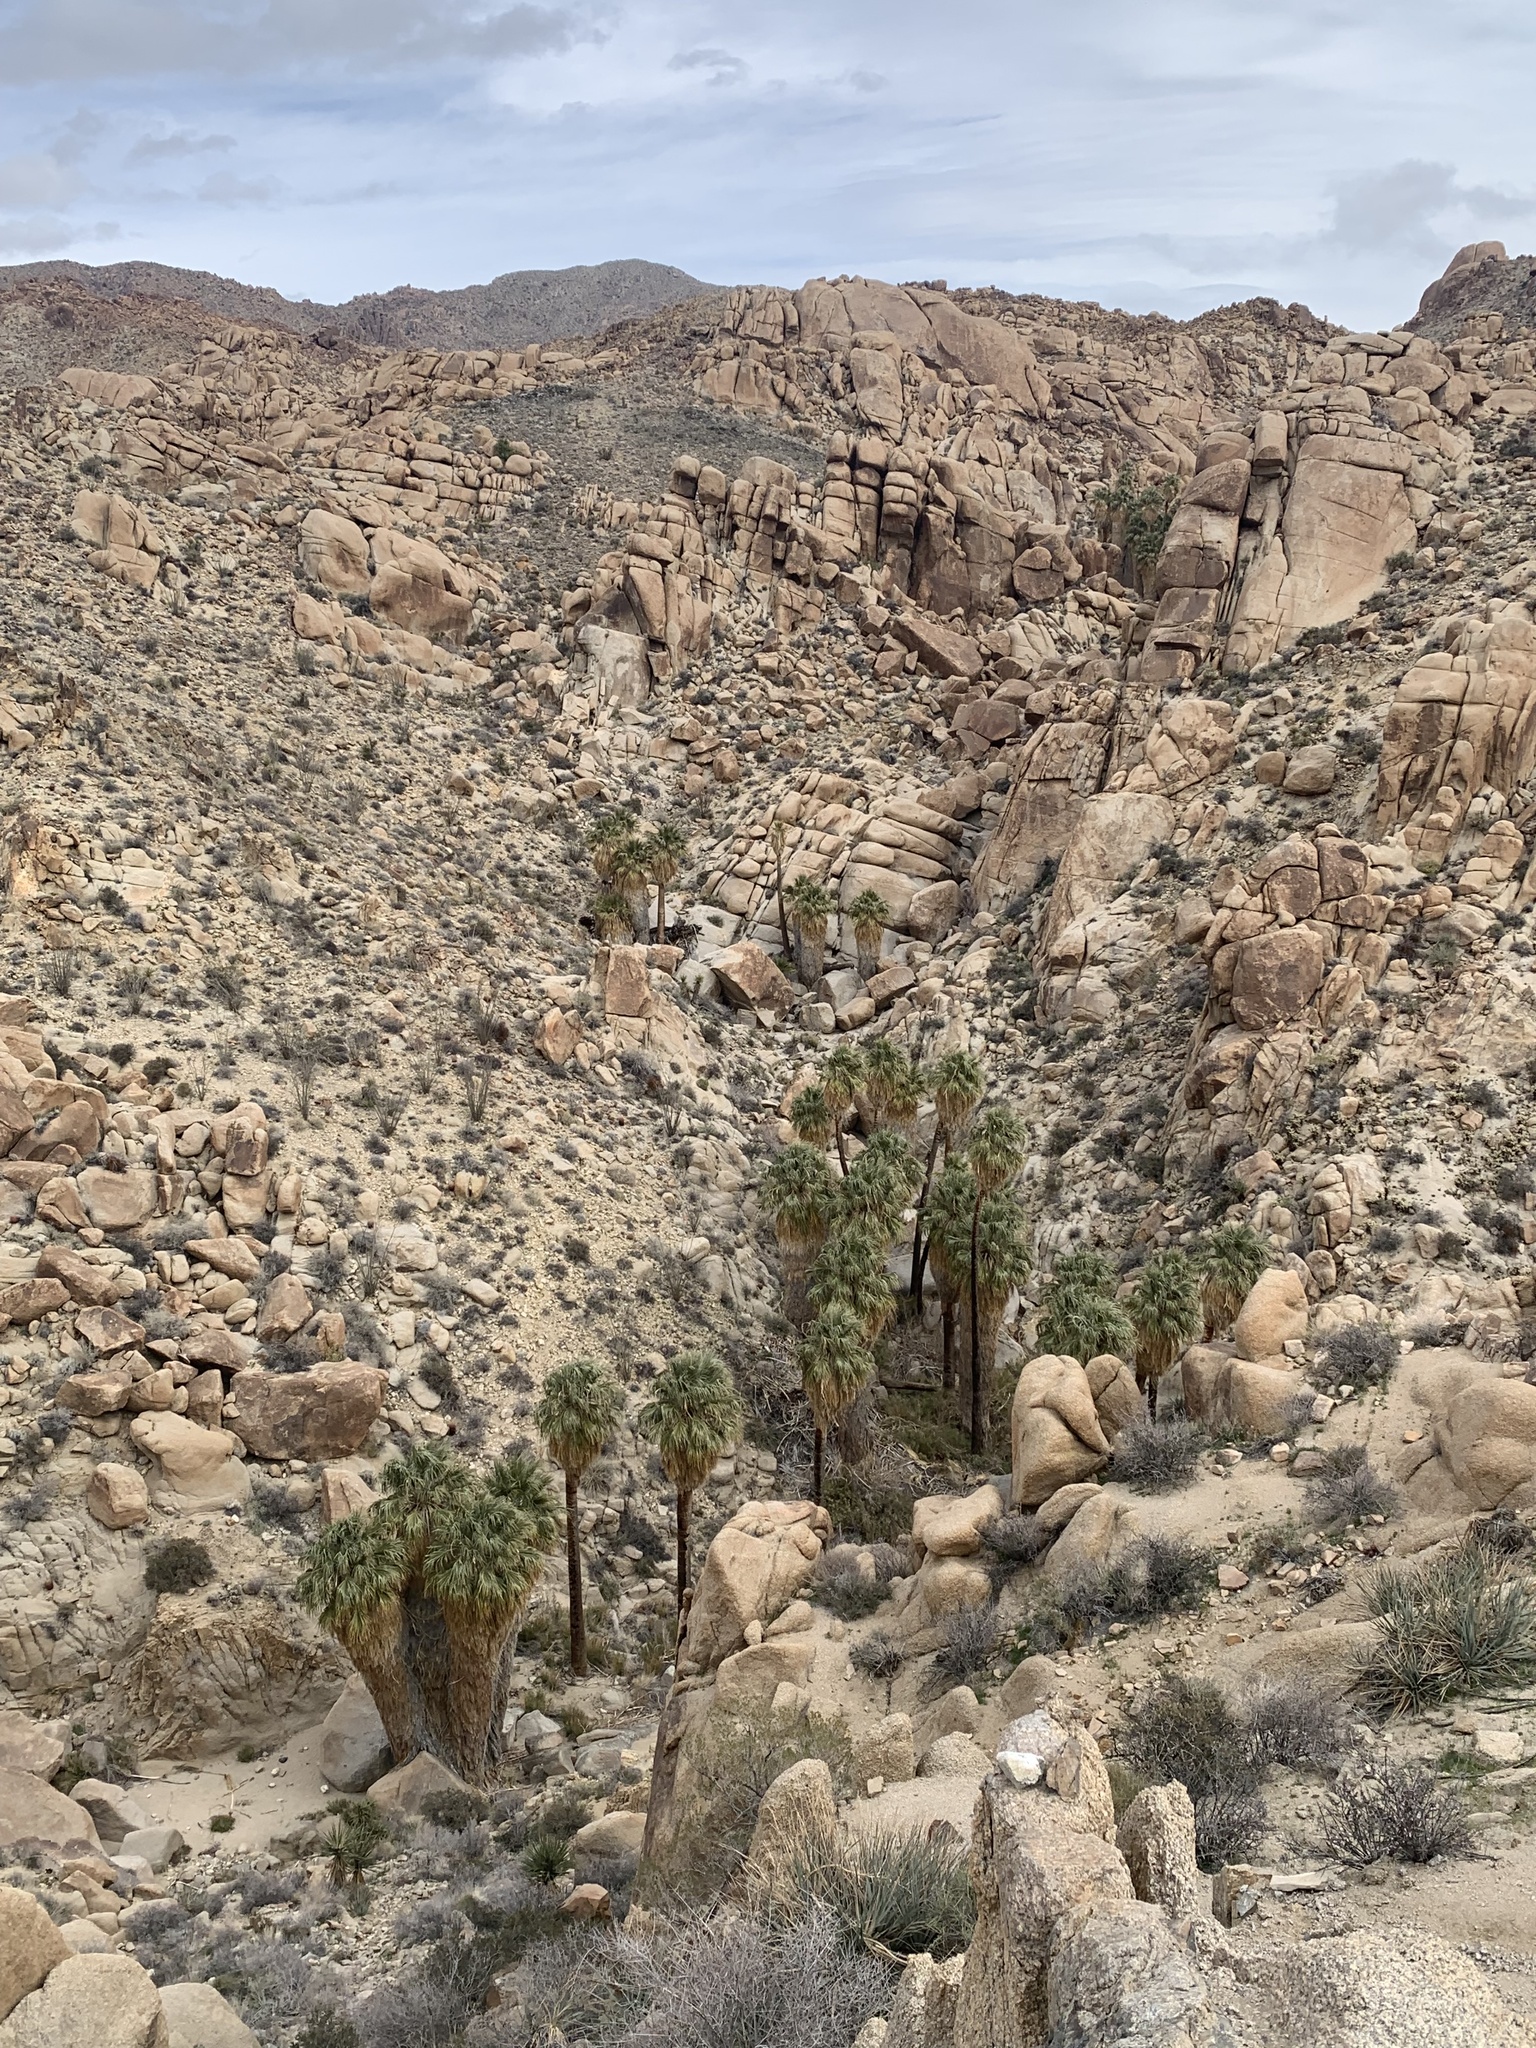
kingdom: Plantae
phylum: Tracheophyta
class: Liliopsida
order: Arecales
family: Arecaceae
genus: Washingtonia
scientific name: Washingtonia filifera
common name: California fan palm
